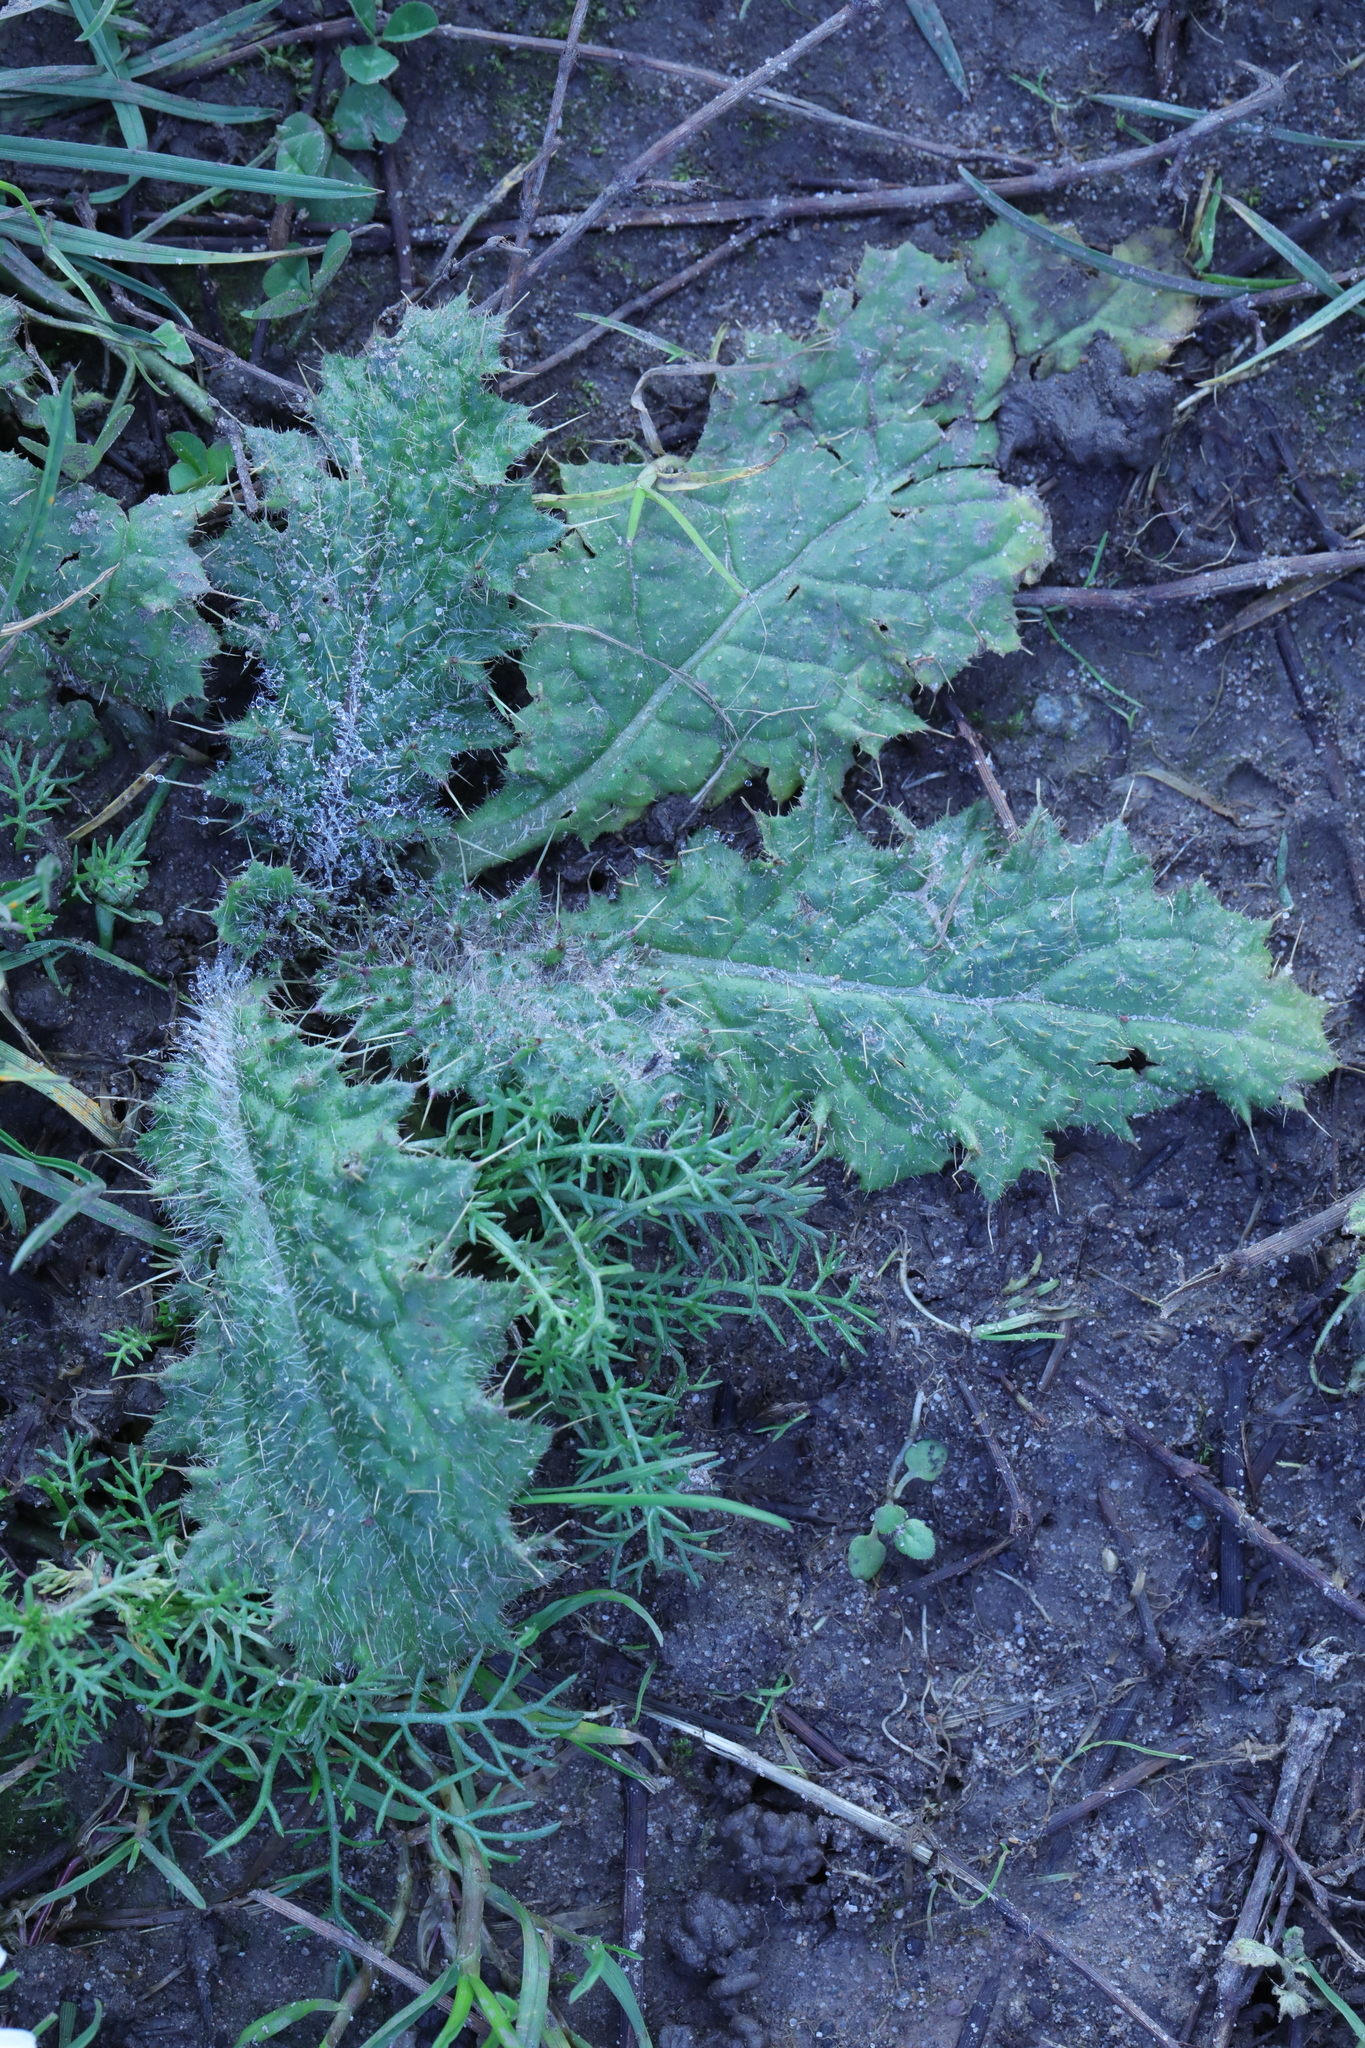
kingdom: Plantae
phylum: Tracheophyta
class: Magnoliopsida
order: Asterales
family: Asteraceae
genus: Cirsium
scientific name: Cirsium vulgare
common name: Bull thistle
